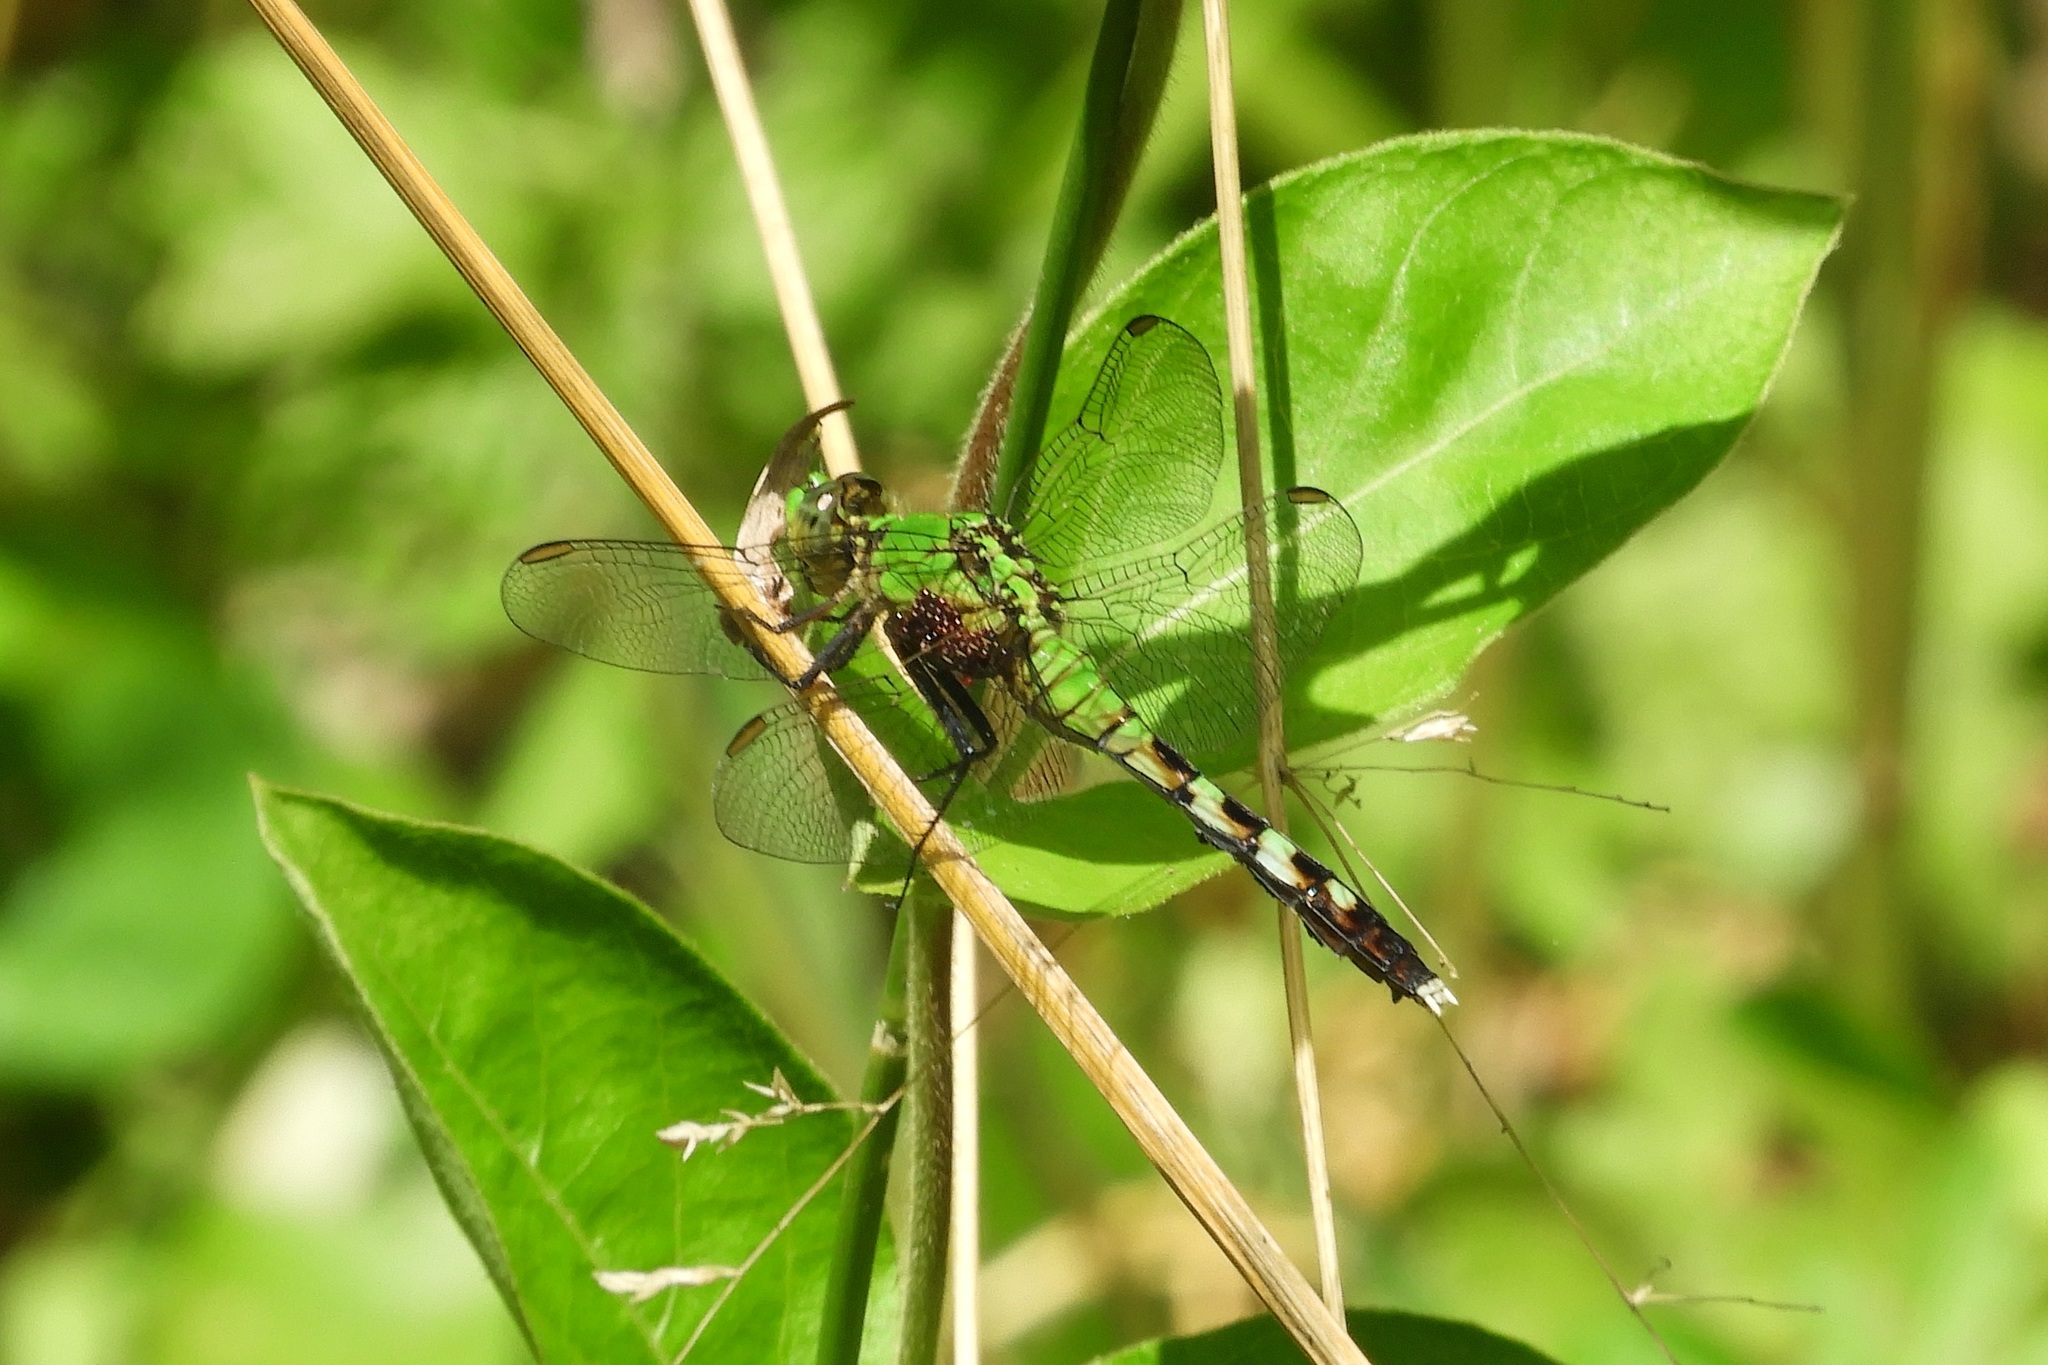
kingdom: Animalia
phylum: Arthropoda
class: Insecta
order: Odonata
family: Libellulidae
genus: Erythemis
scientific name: Erythemis simplicicollis
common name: Eastern pondhawk
